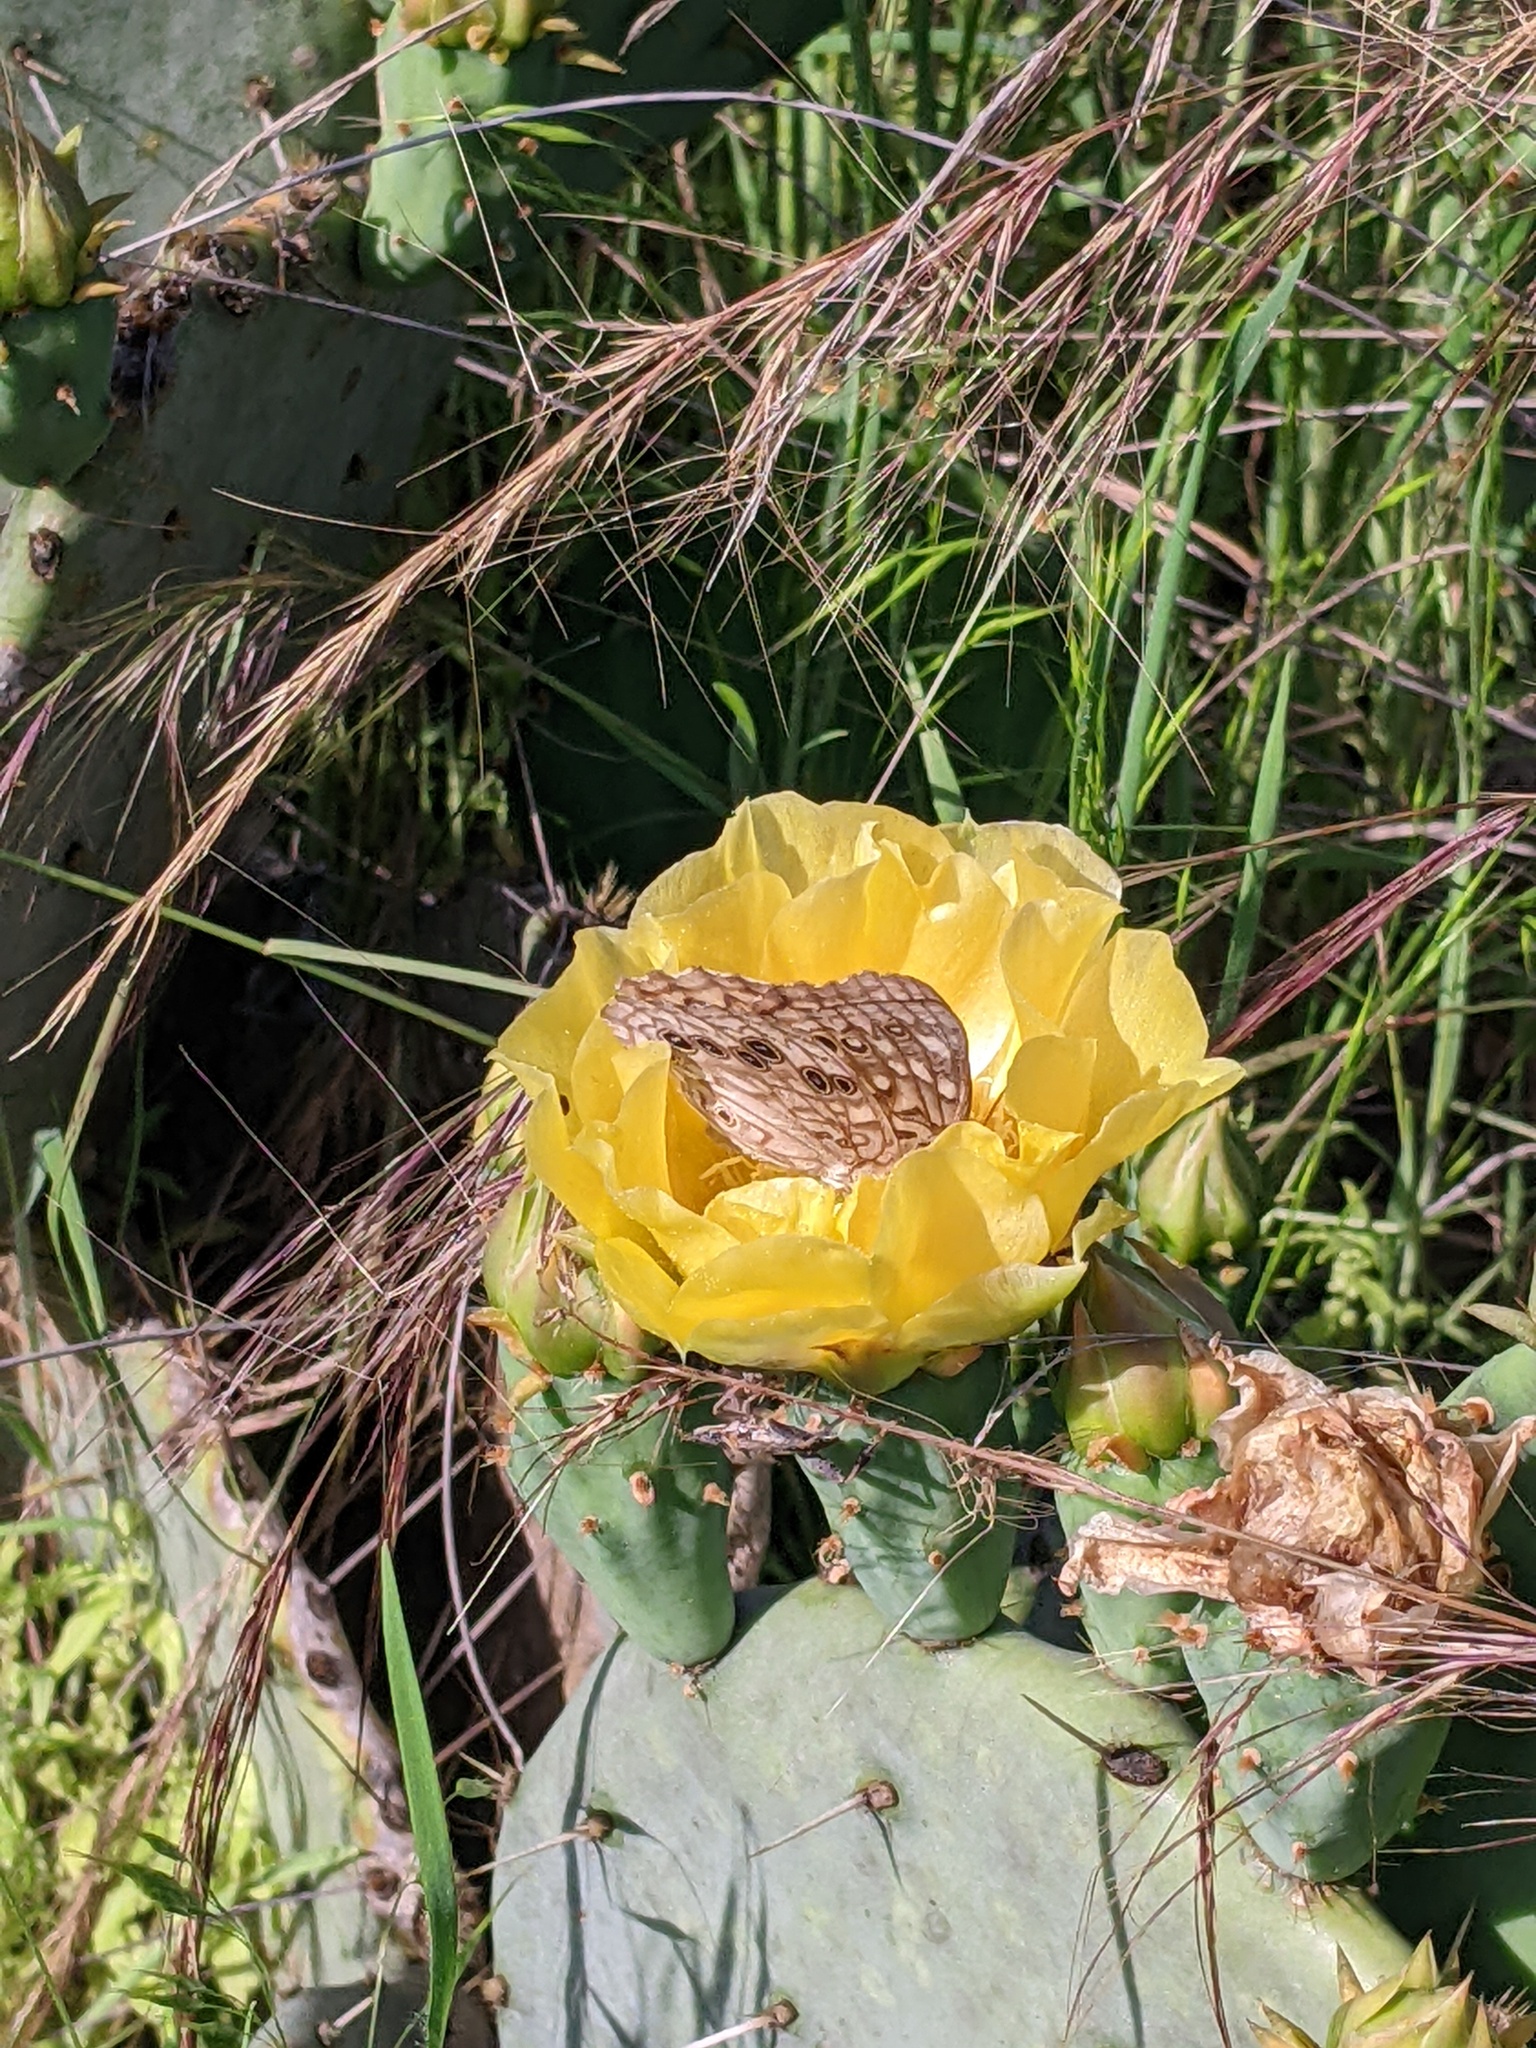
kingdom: Animalia
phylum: Arthropoda
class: Insecta
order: Lepidoptera
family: Nymphalidae
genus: Asterocampa
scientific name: Asterocampa celtis
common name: Hackberry emperor
